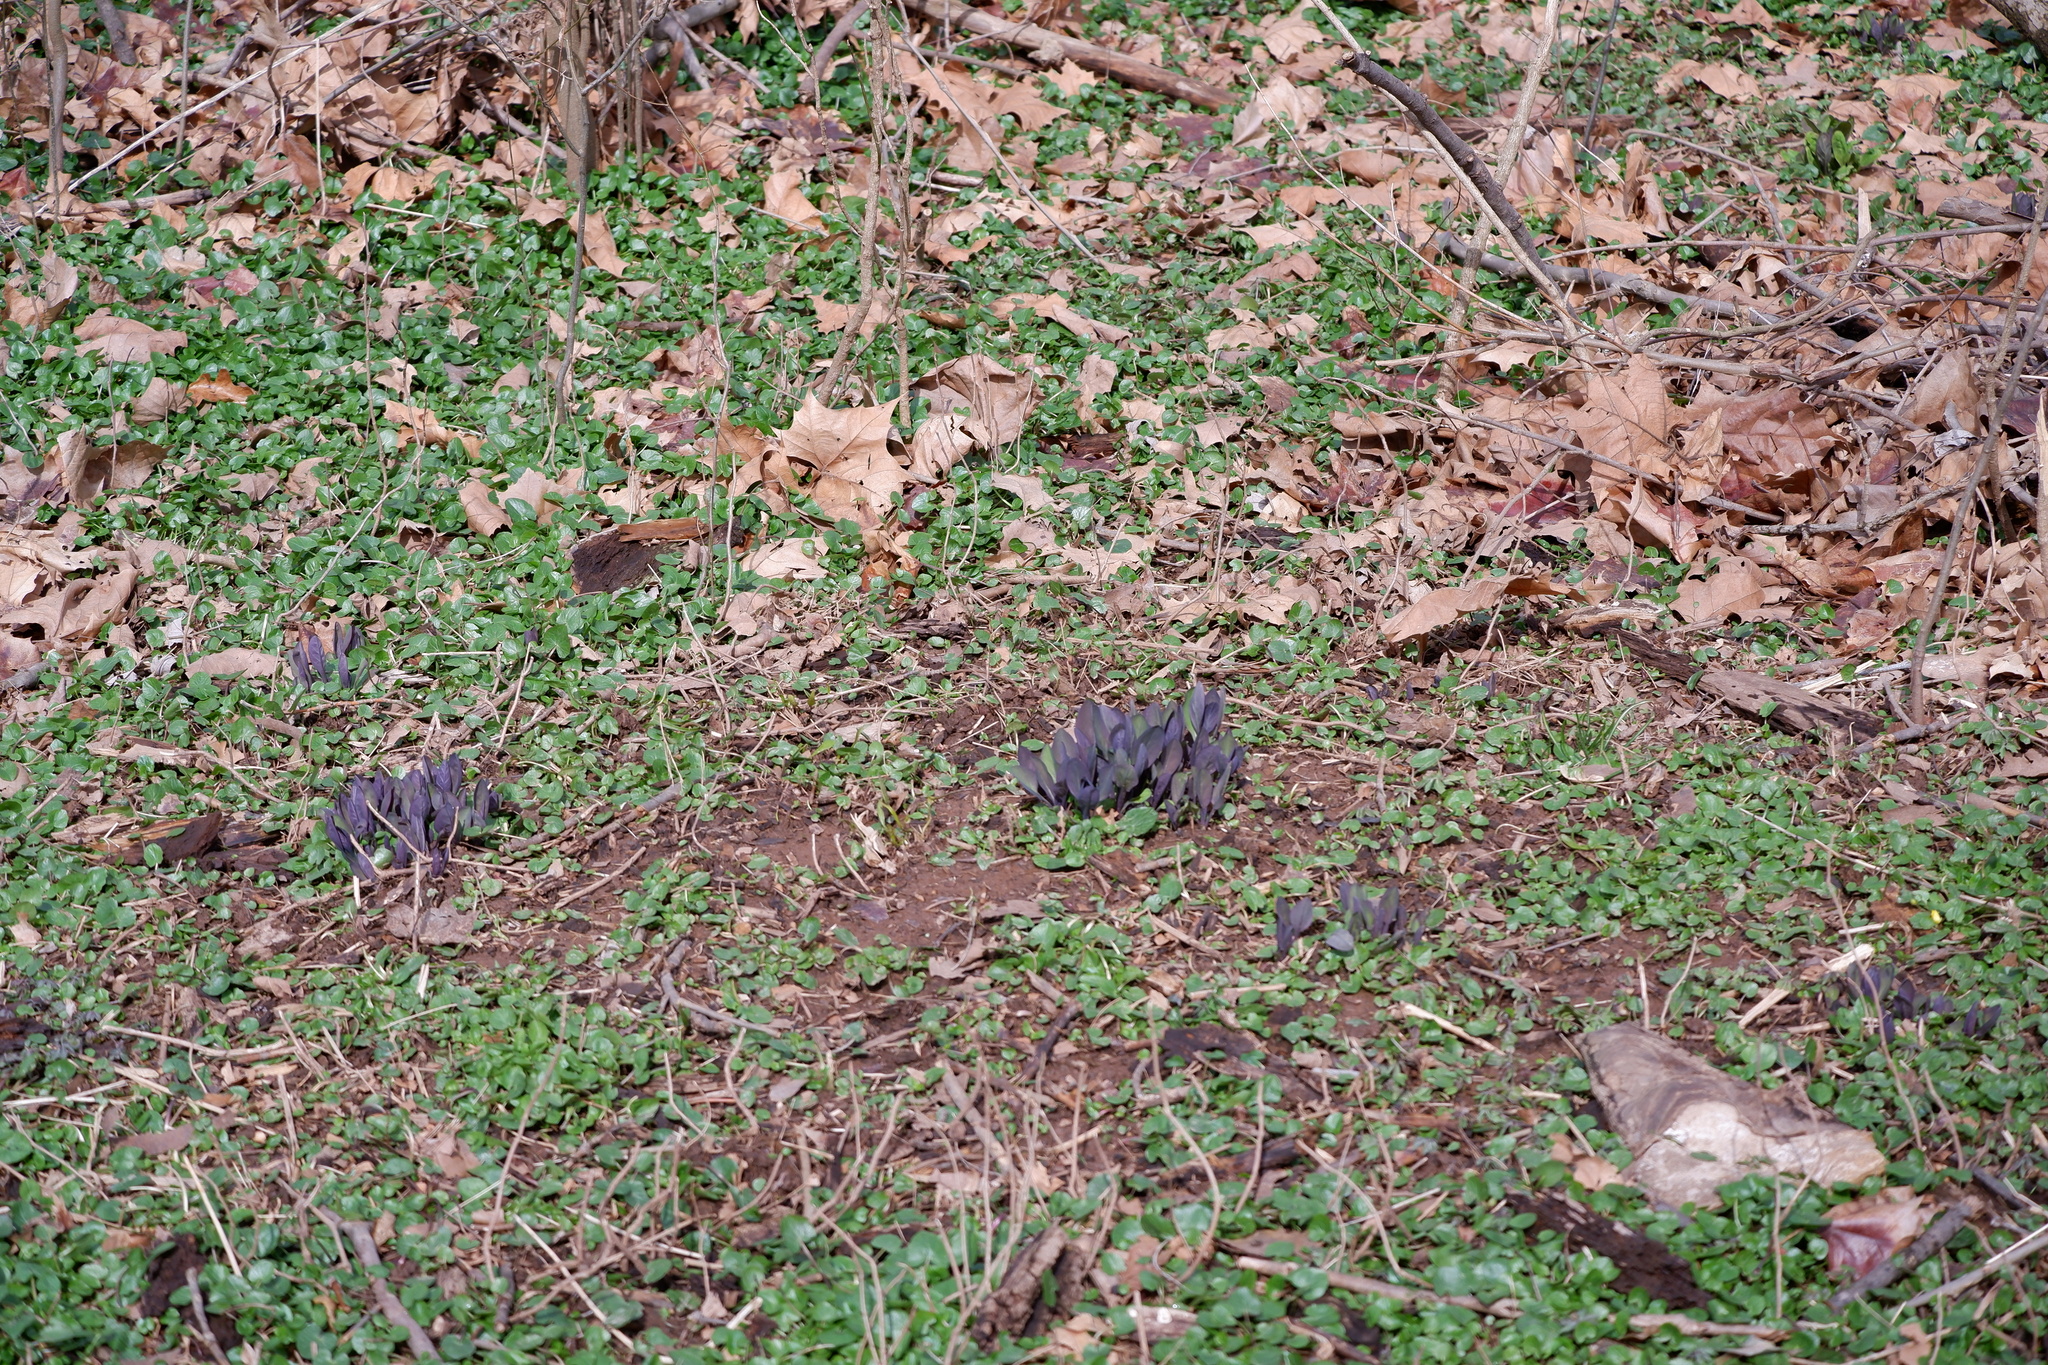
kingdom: Plantae
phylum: Tracheophyta
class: Magnoliopsida
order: Boraginales
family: Boraginaceae
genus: Mertensia
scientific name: Mertensia virginica
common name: Virginia bluebells
